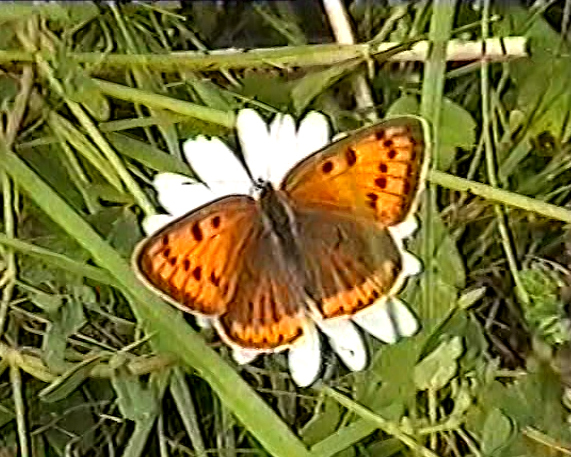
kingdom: Animalia
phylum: Arthropoda
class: Insecta
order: Lepidoptera
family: Lycaenidae
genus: Lycaena
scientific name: Lycaena dispar
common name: Large copper
